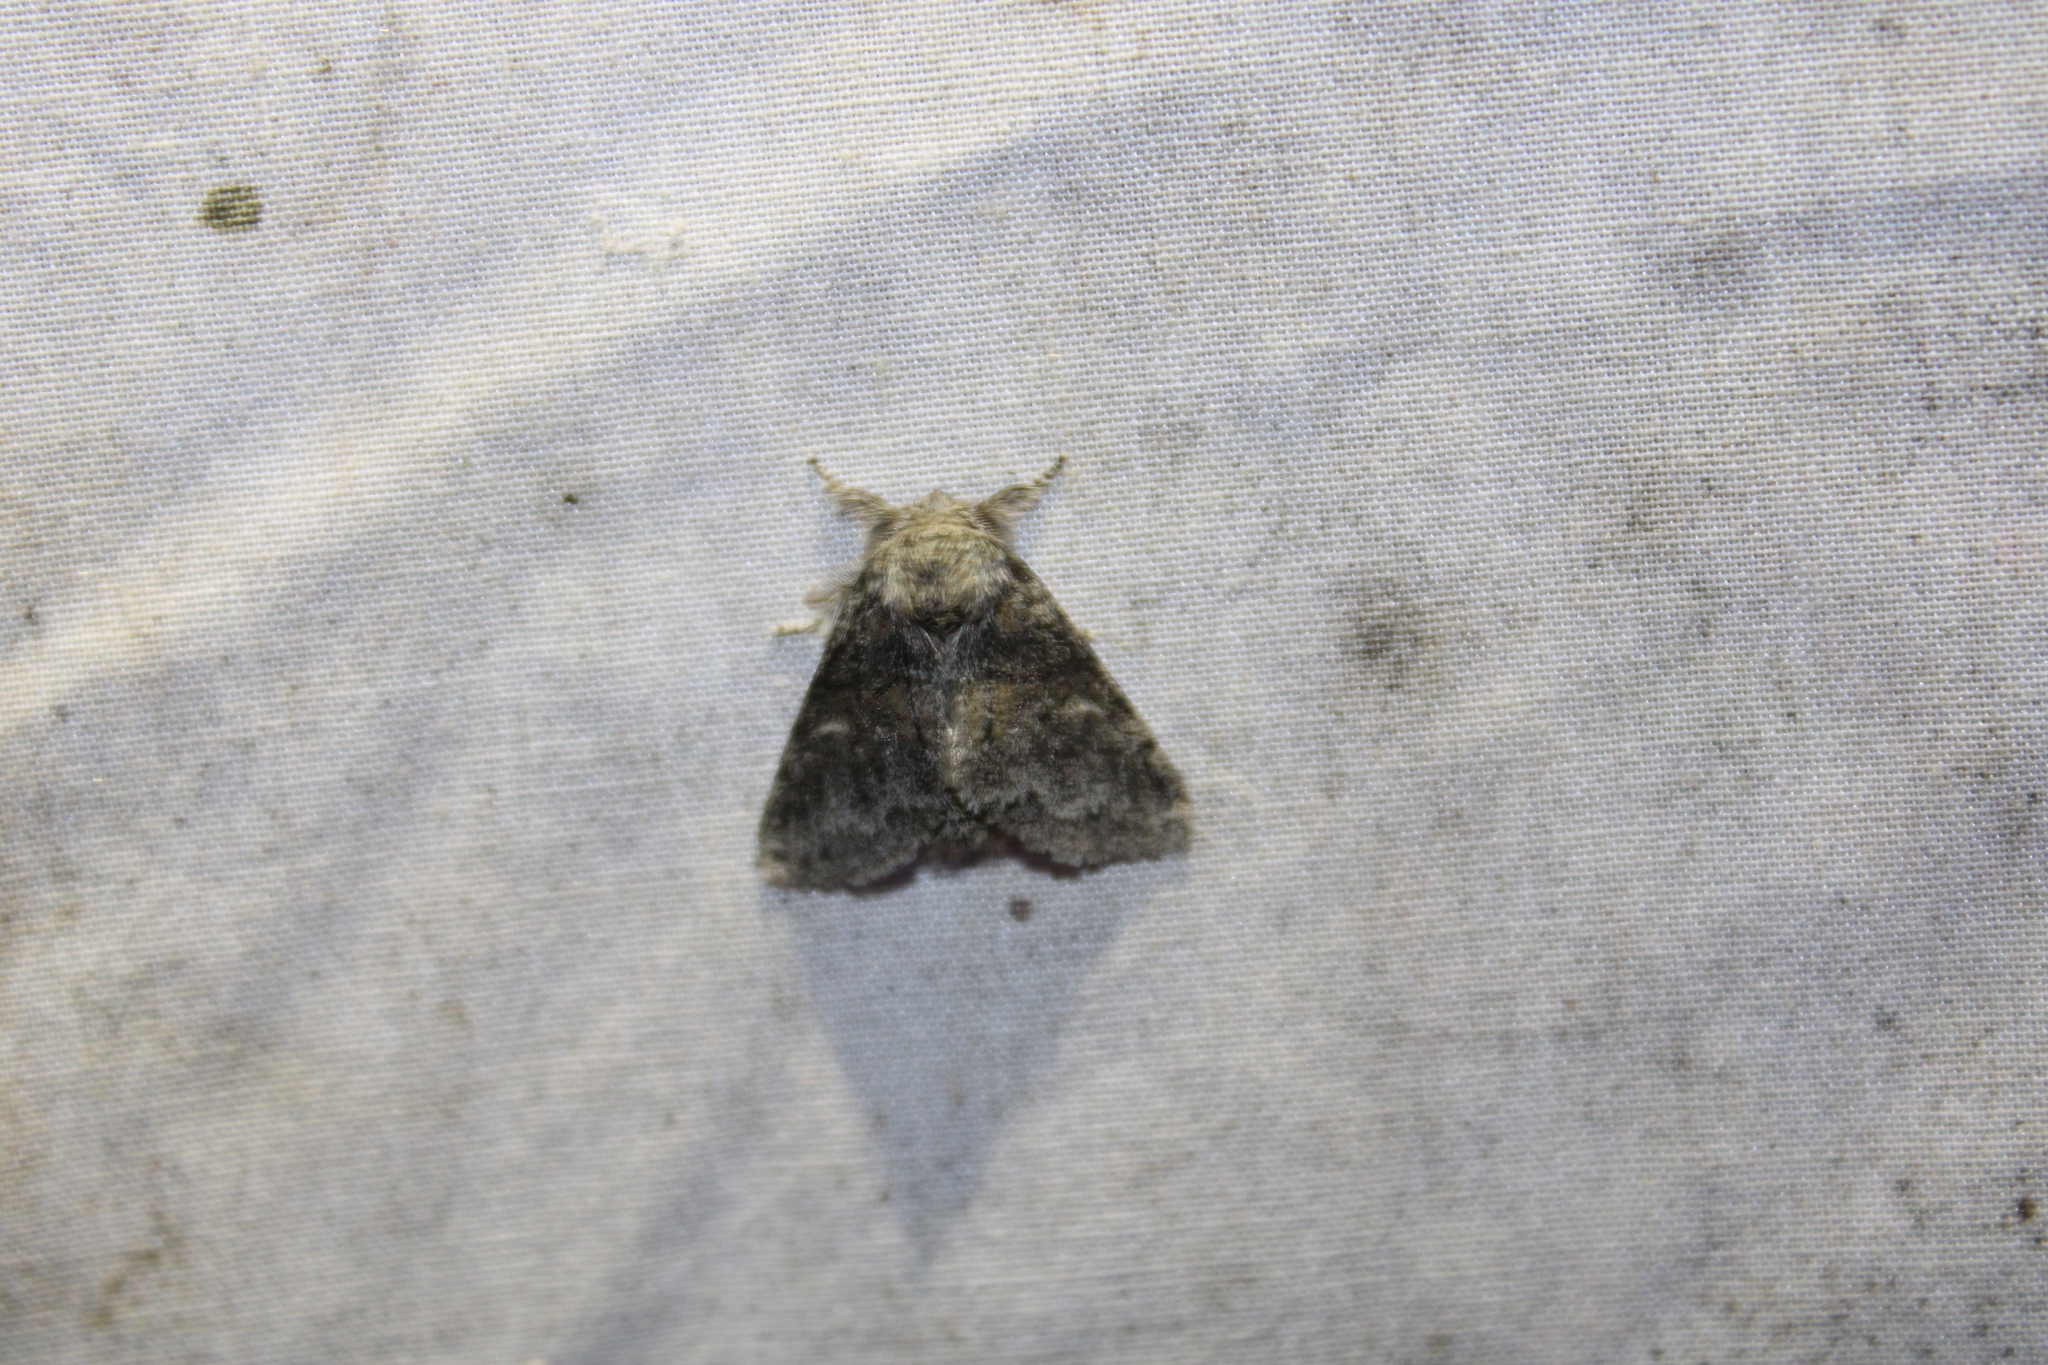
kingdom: Animalia
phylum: Arthropoda
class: Insecta
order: Lepidoptera
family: Notodontidae
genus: Gluphisia
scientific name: Gluphisia septentrionis
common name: Common gluphisia
